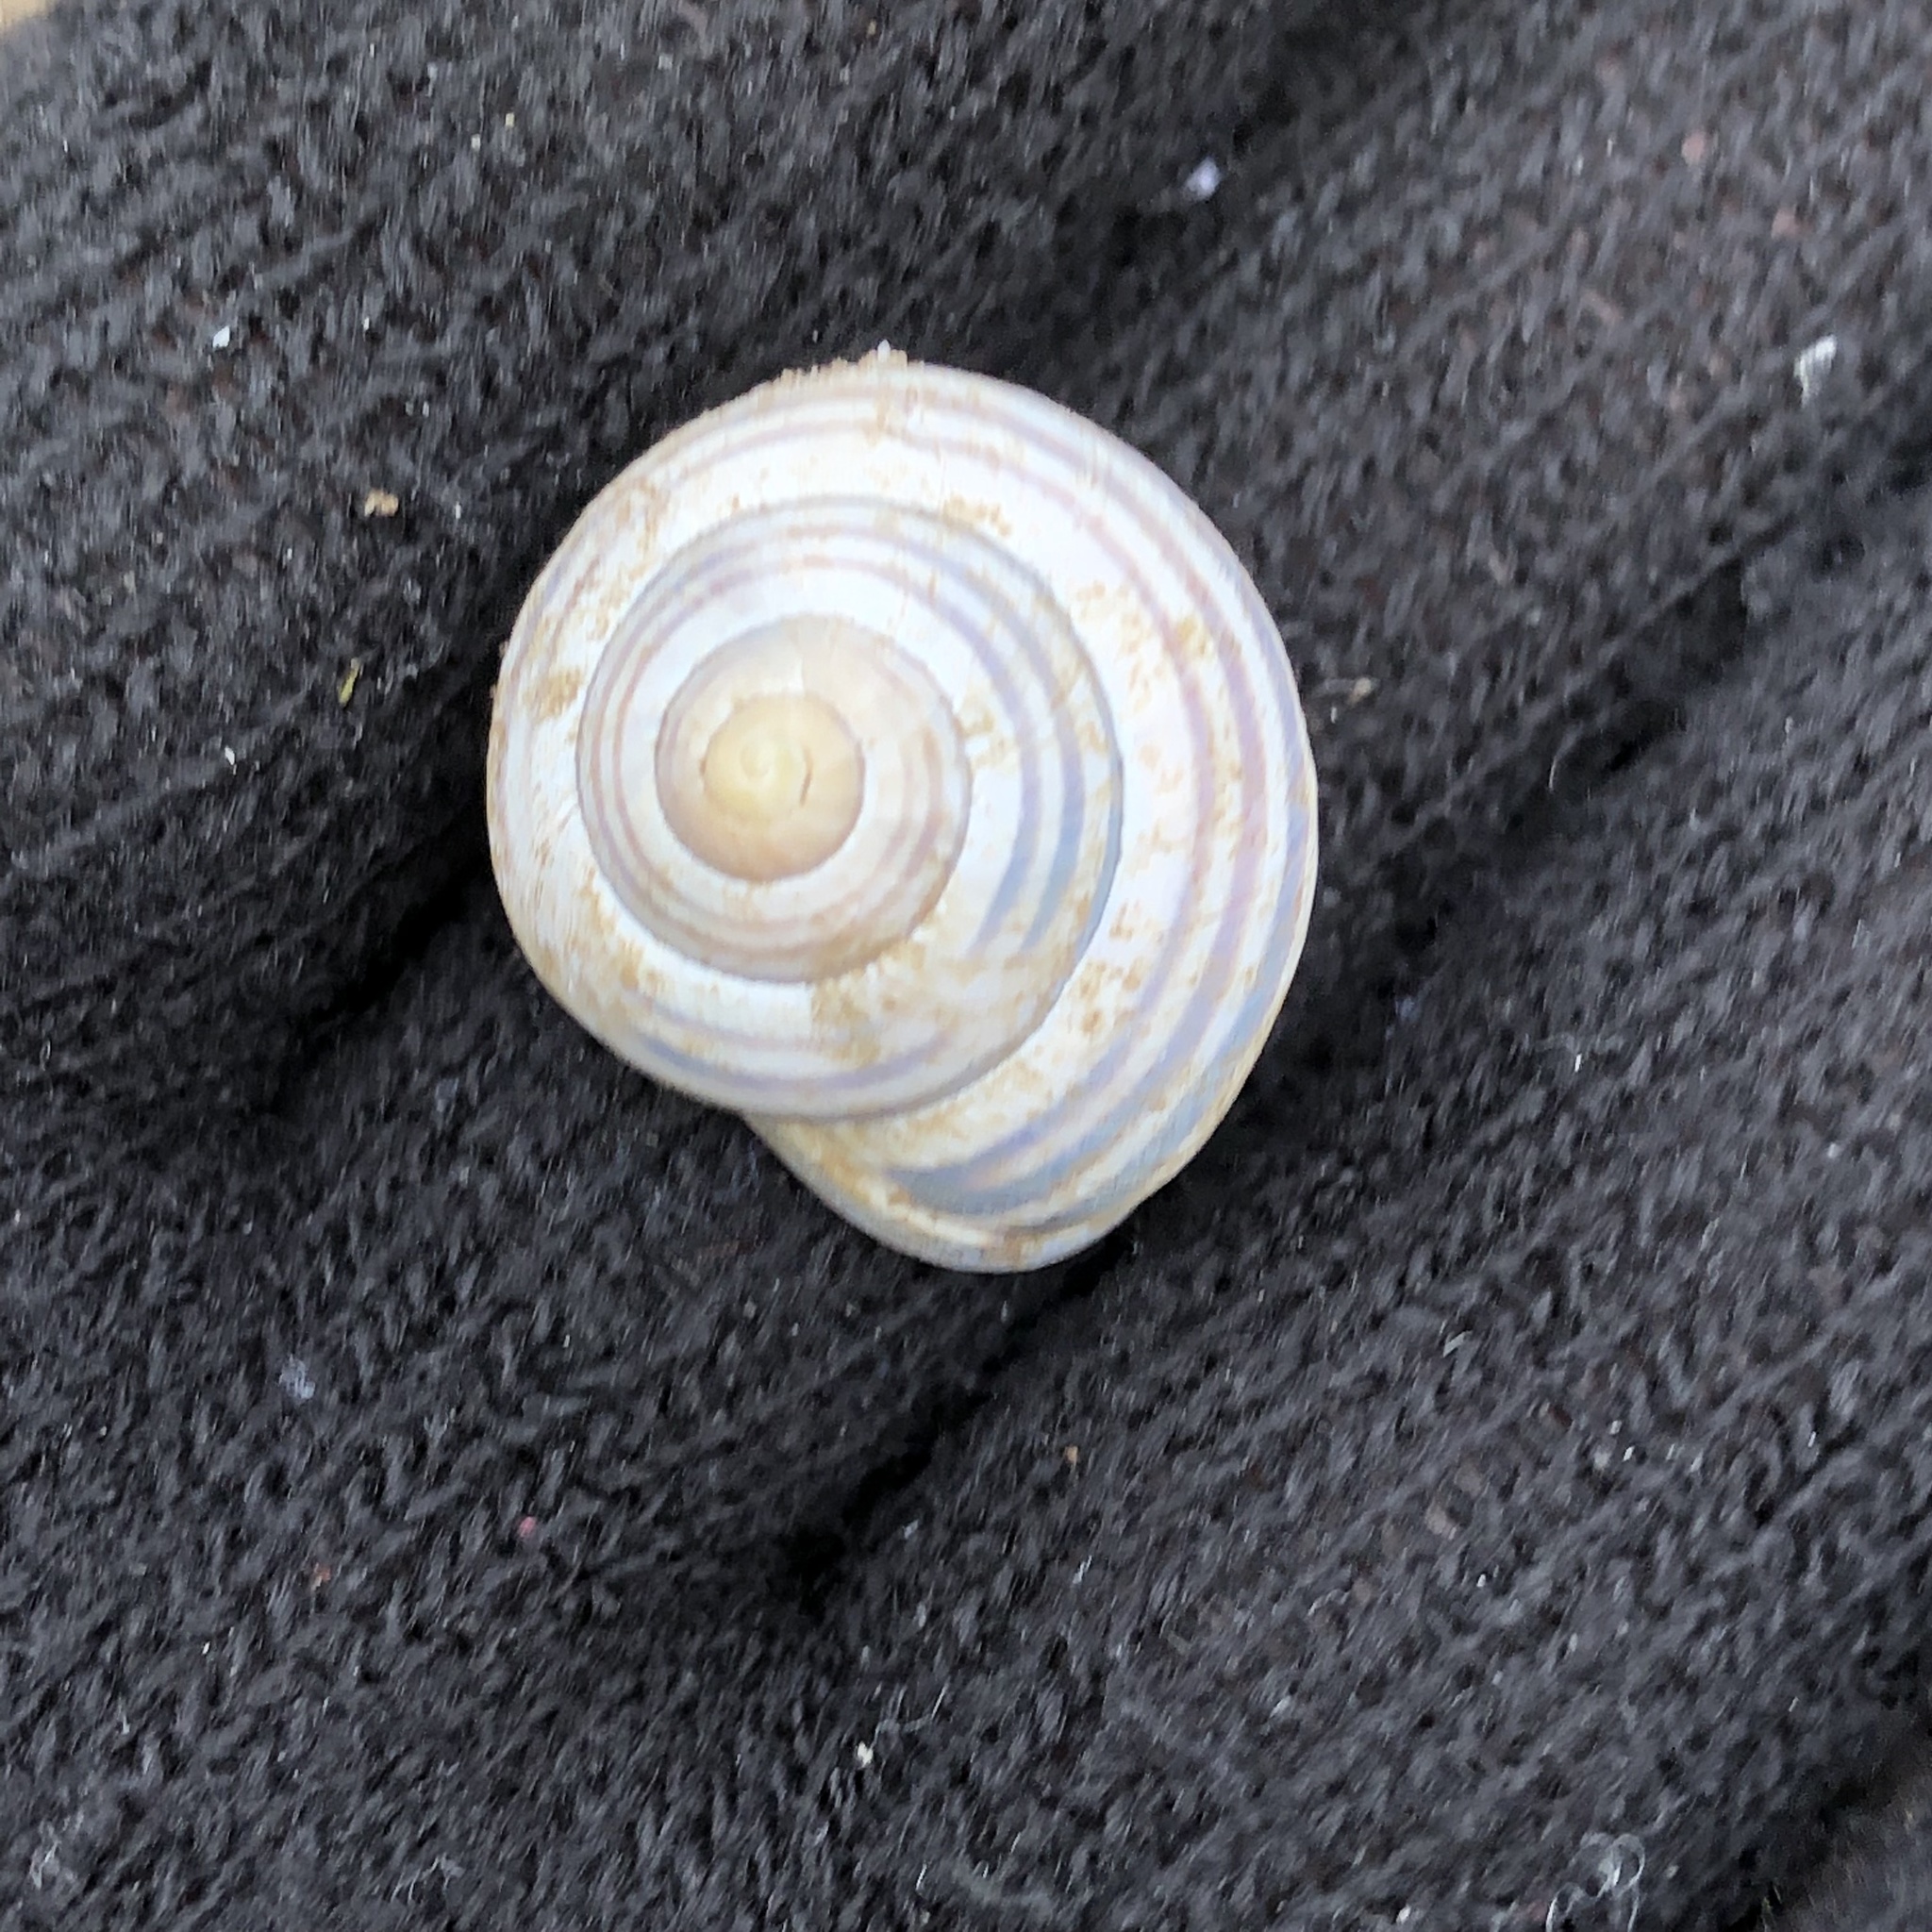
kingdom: Animalia
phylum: Mollusca
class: Gastropoda
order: Stylommatophora
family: Helicidae
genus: Cepaea
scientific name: Cepaea nemoralis
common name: Grovesnail
